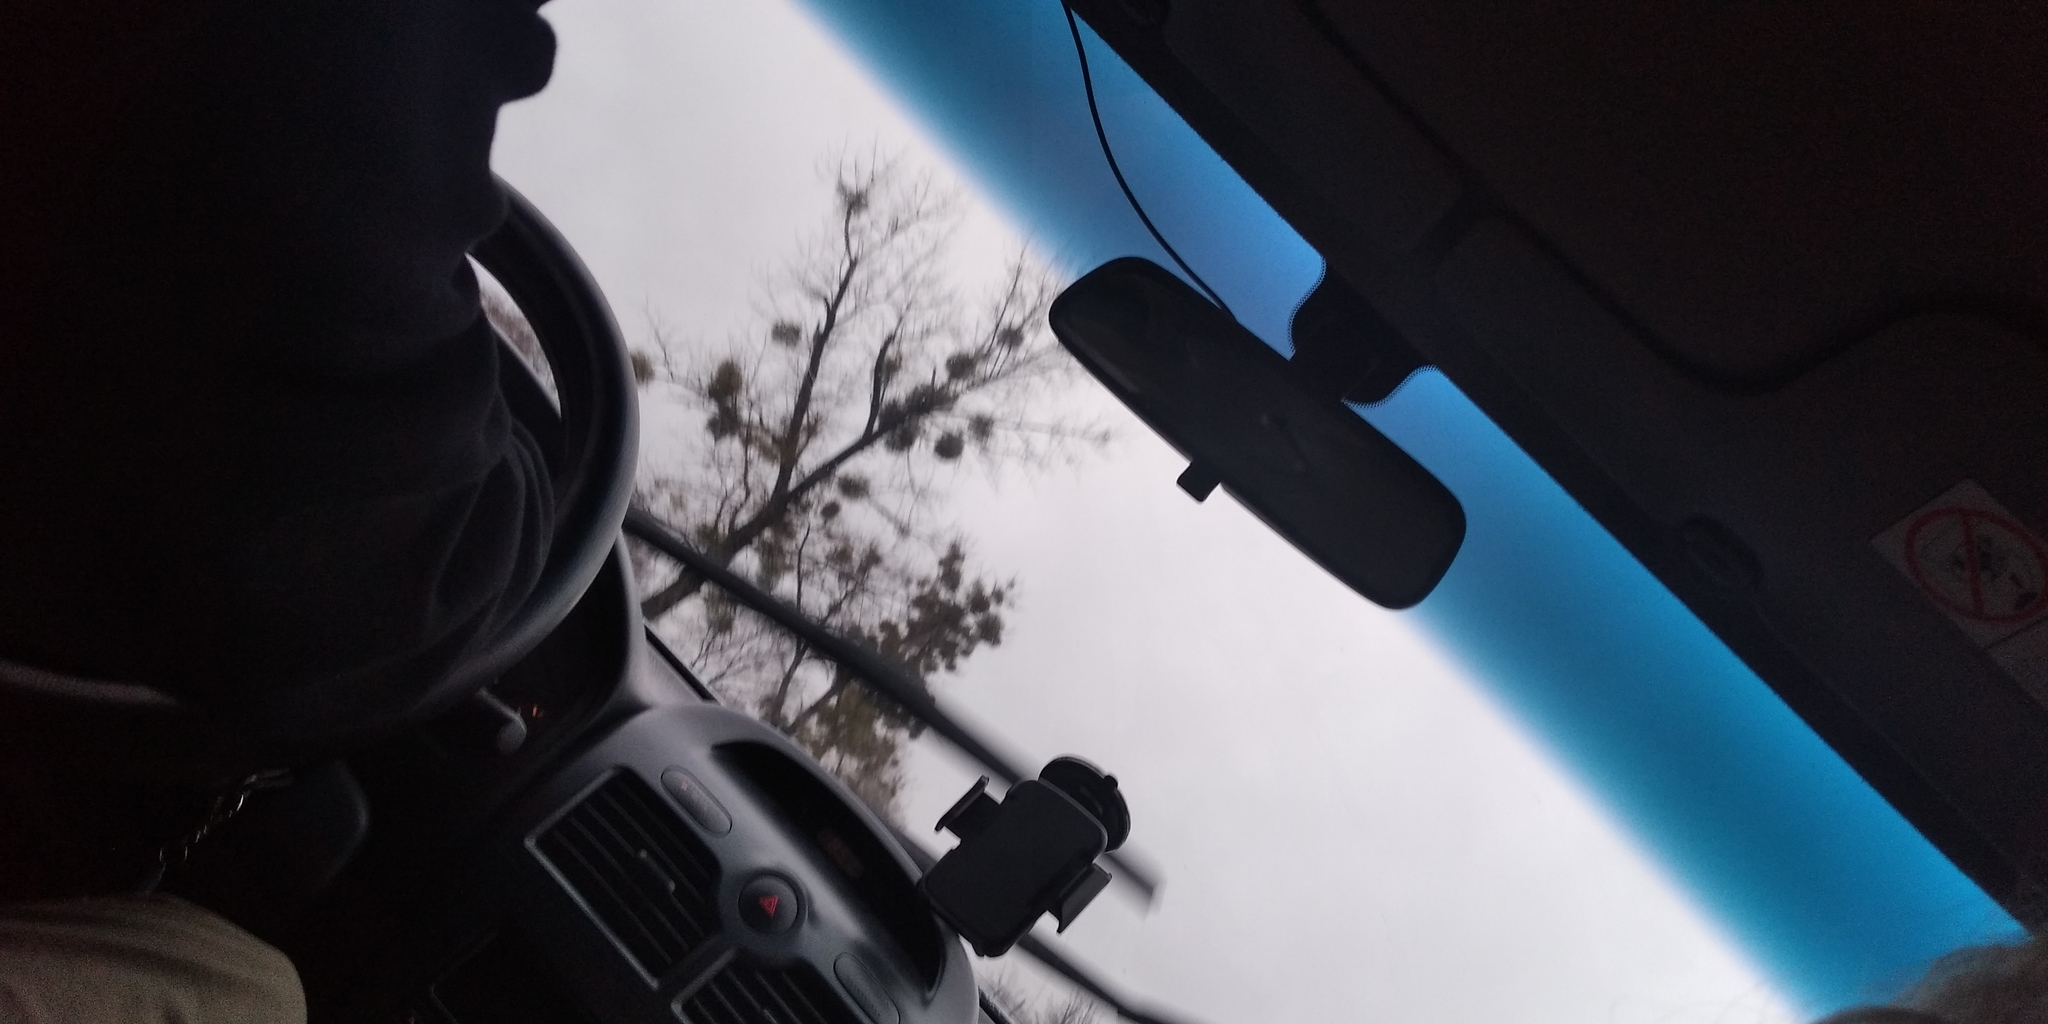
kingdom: Plantae
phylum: Tracheophyta
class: Magnoliopsida
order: Santalales
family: Viscaceae
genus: Viscum
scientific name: Viscum album
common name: Mistletoe
